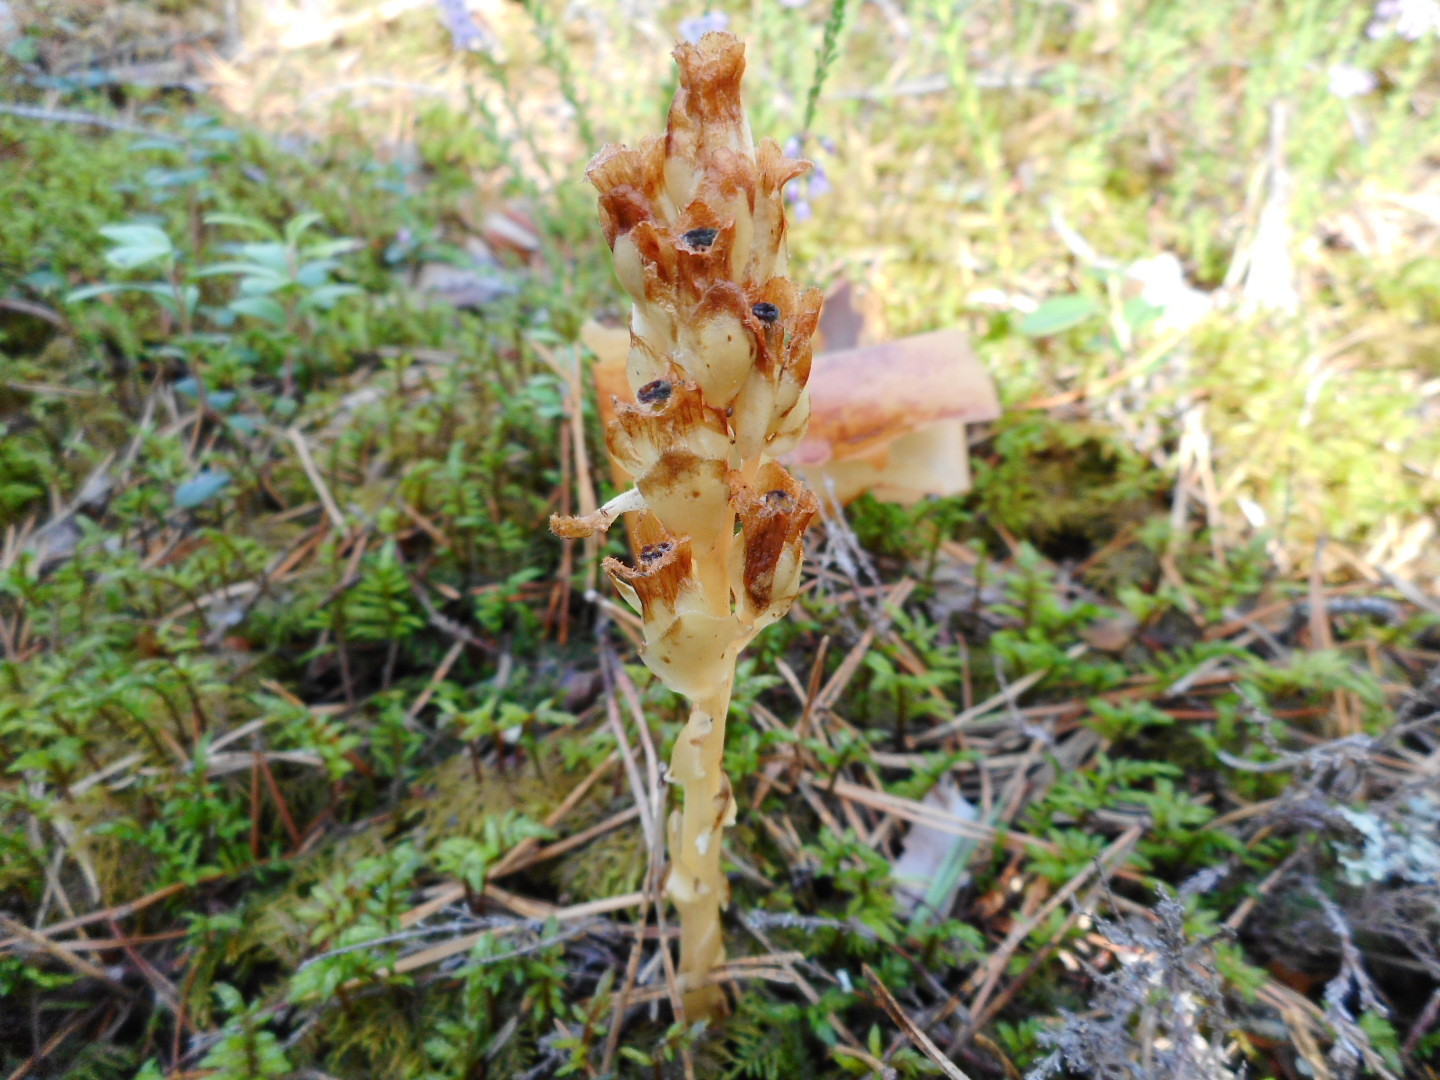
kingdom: Plantae
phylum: Tracheophyta
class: Magnoliopsida
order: Ericales
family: Ericaceae
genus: Hypopitys
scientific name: Hypopitys monotropa
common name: Yellow bird's-nest
